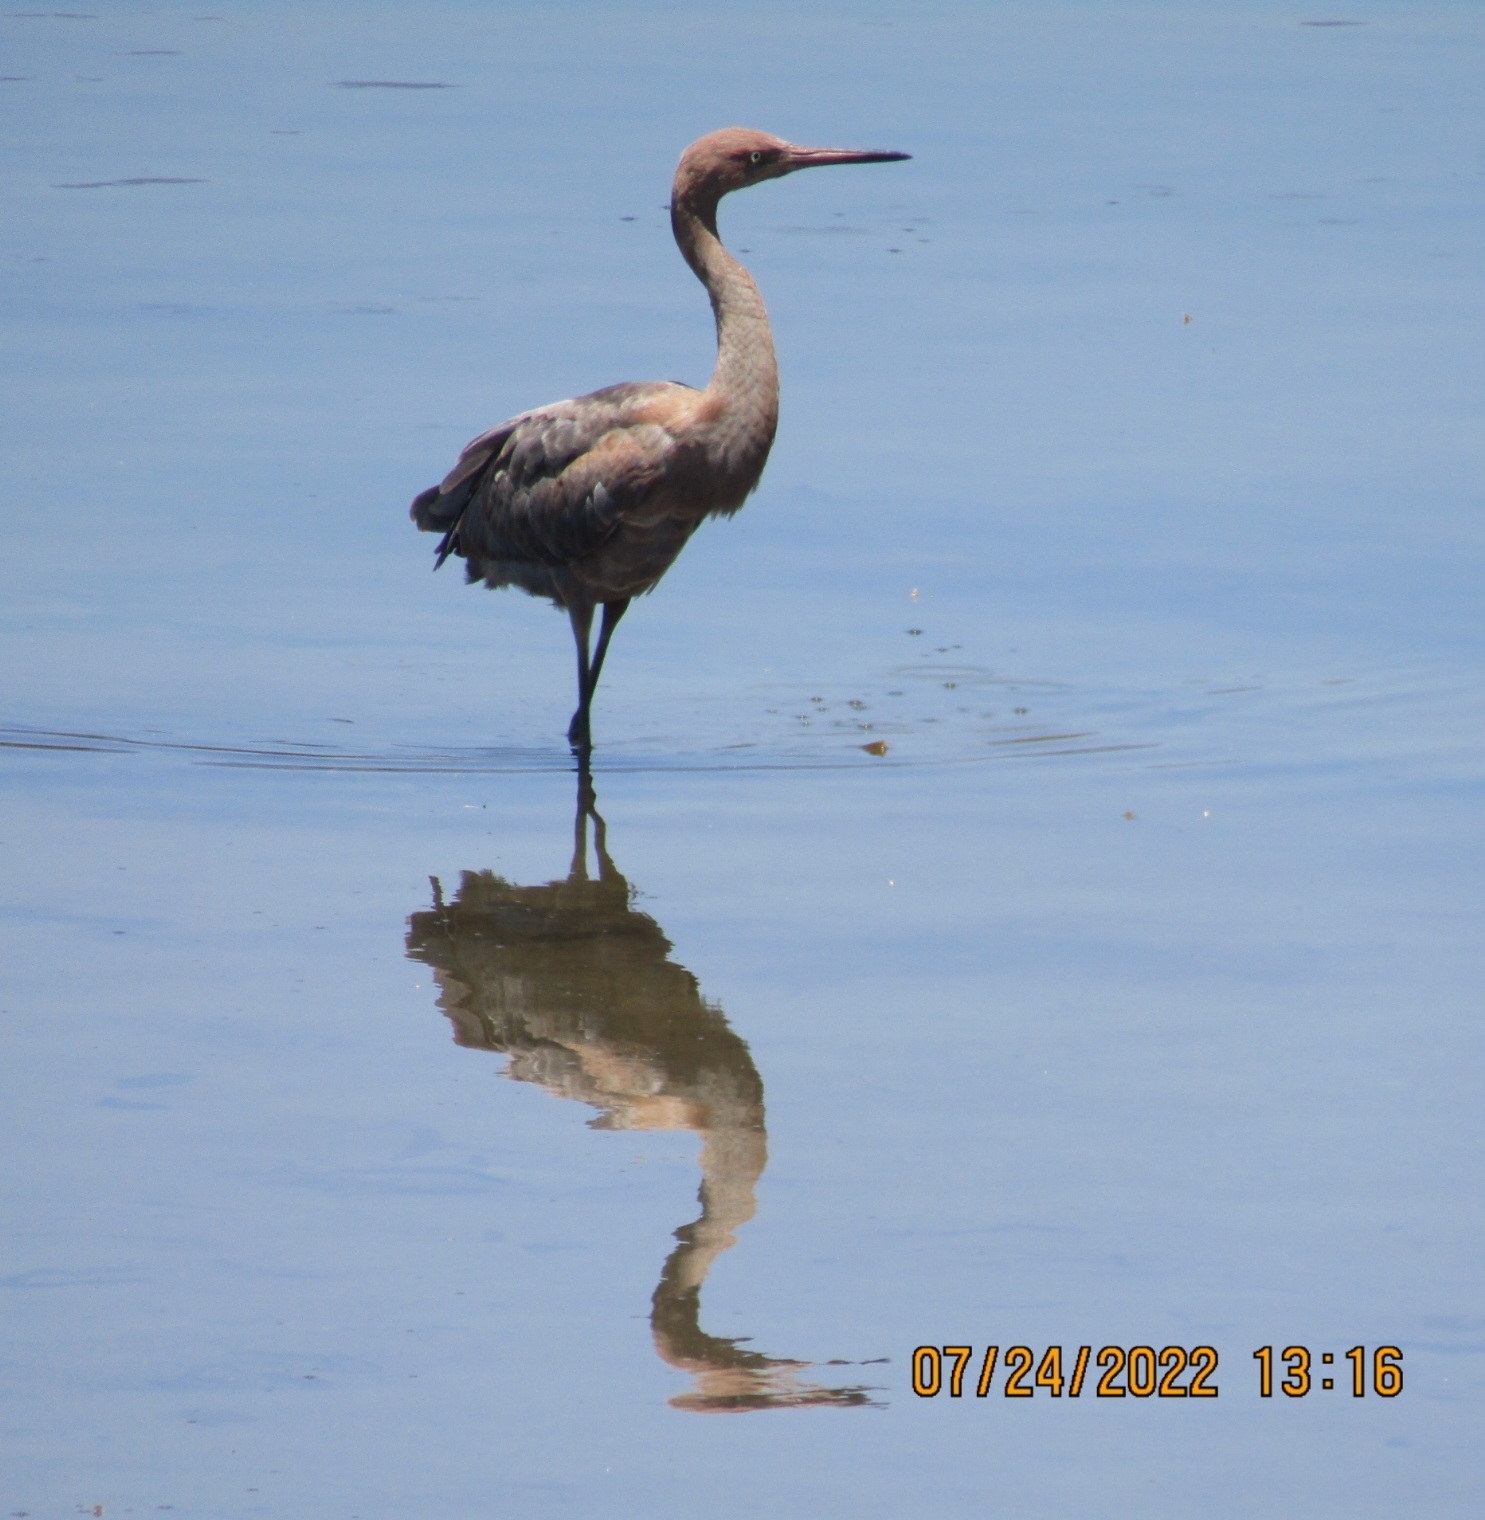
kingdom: Animalia
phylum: Chordata
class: Aves
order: Pelecaniformes
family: Ardeidae
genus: Egretta
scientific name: Egretta rufescens
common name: Reddish egret
